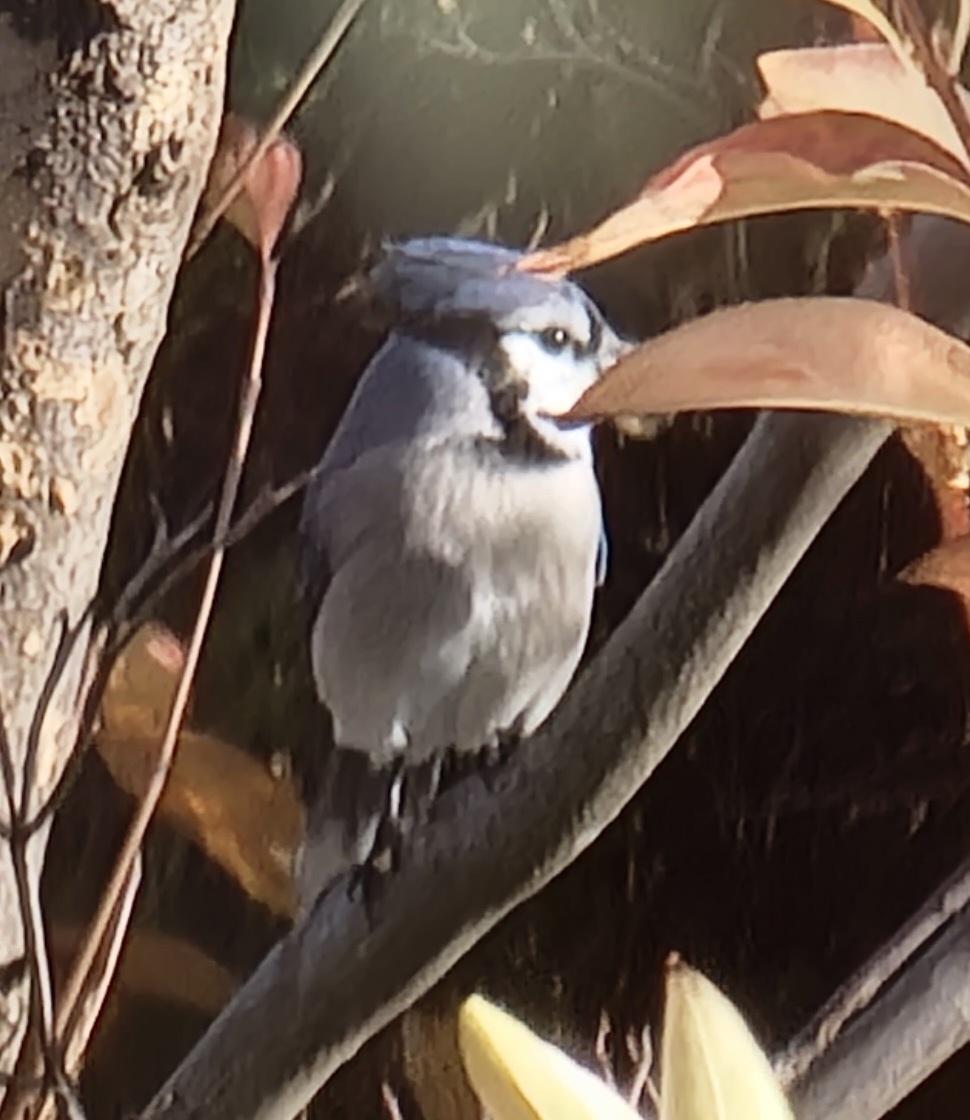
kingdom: Animalia
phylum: Chordata
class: Aves
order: Passeriformes
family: Corvidae
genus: Cyanocitta
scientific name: Cyanocitta cristata
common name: Blue jay
